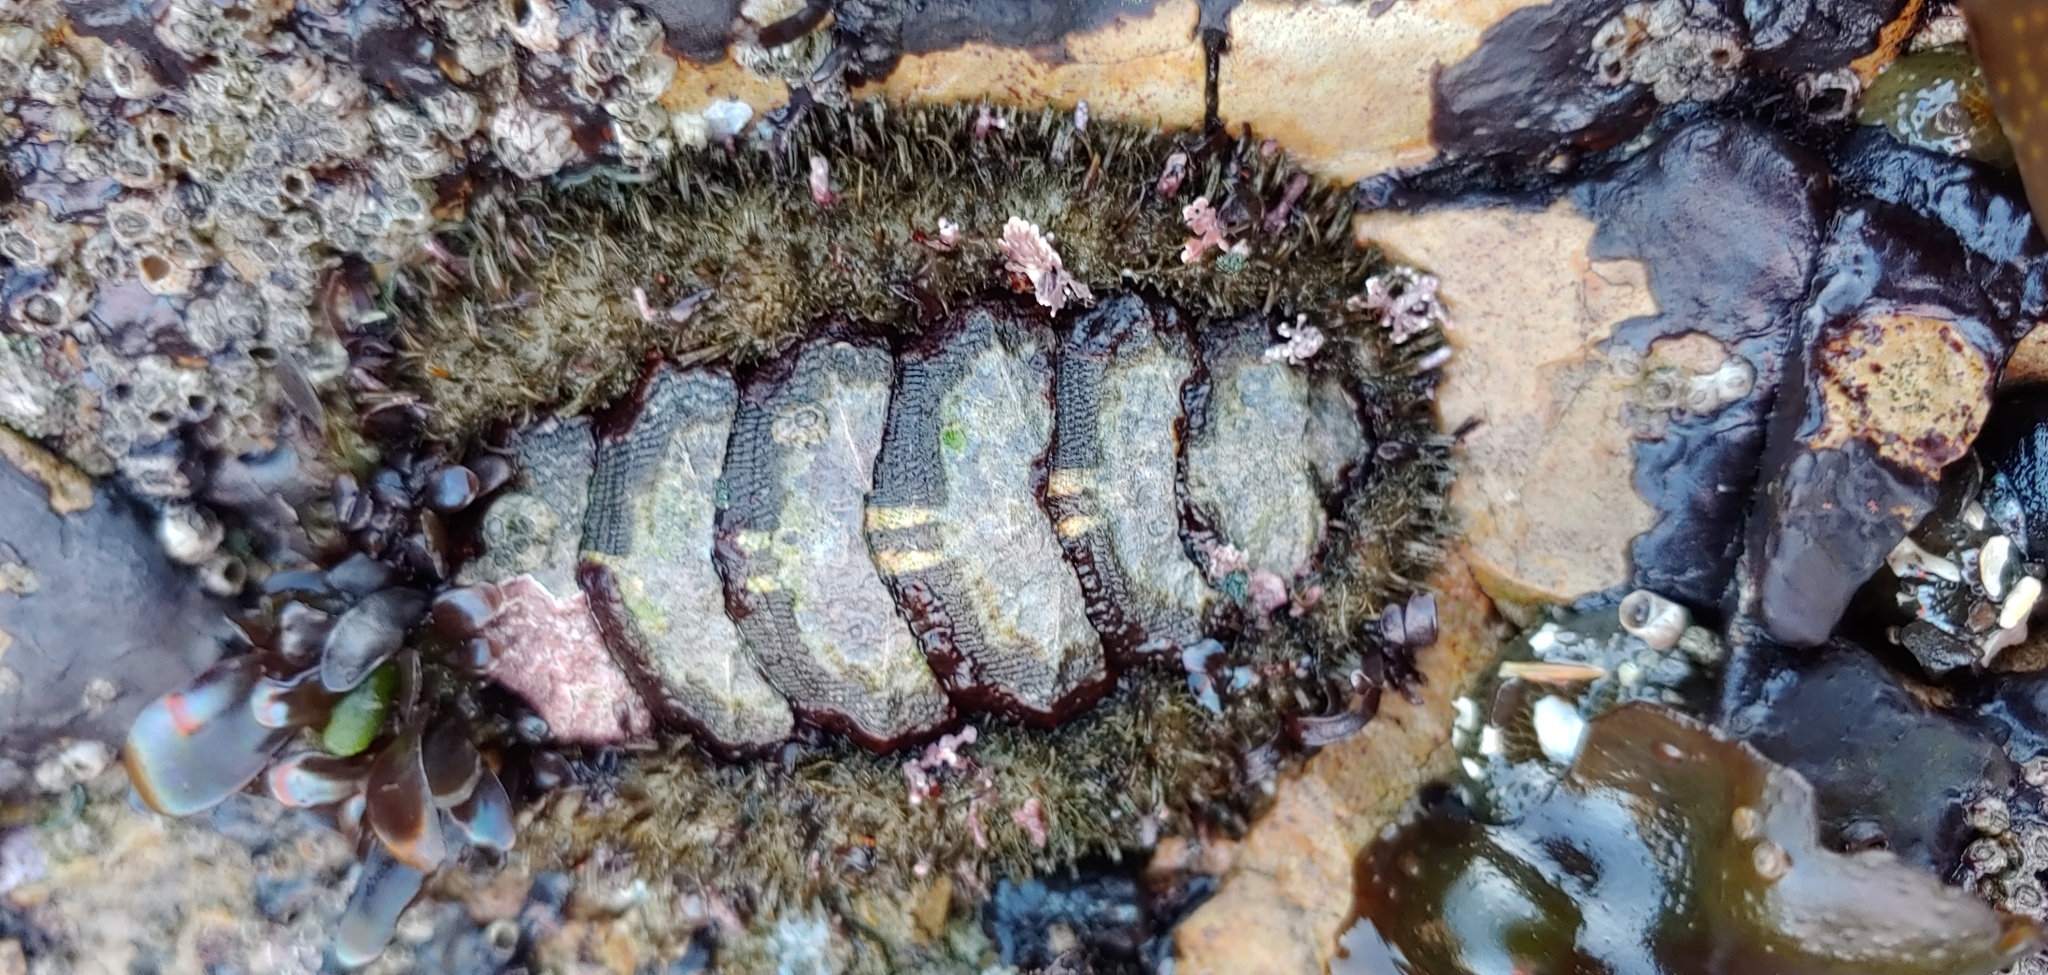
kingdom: Animalia
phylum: Mollusca
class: Polyplacophora
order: Chitonida
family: Mopaliidae
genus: Mopalia
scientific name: Mopalia muscosa
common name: Mossy chiton
